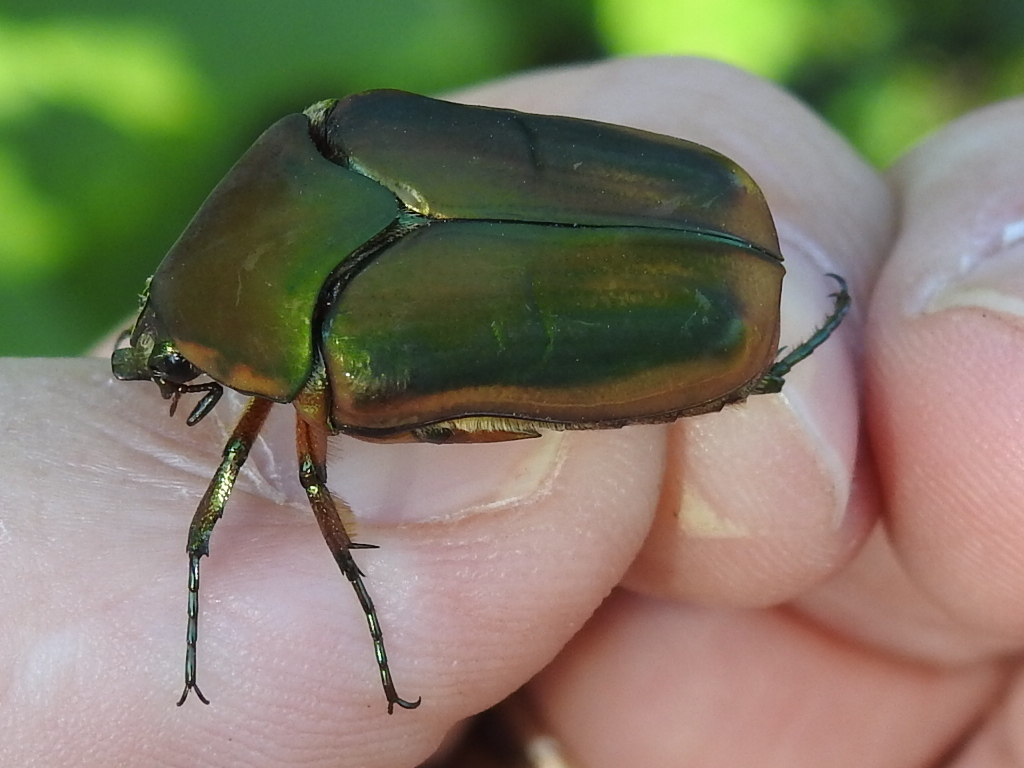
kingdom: Animalia
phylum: Arthropoda
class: Insecta
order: Coleoptera
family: Scarabaeidae
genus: Cotinis
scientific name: Cotinis nitida
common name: Common green june beetle
